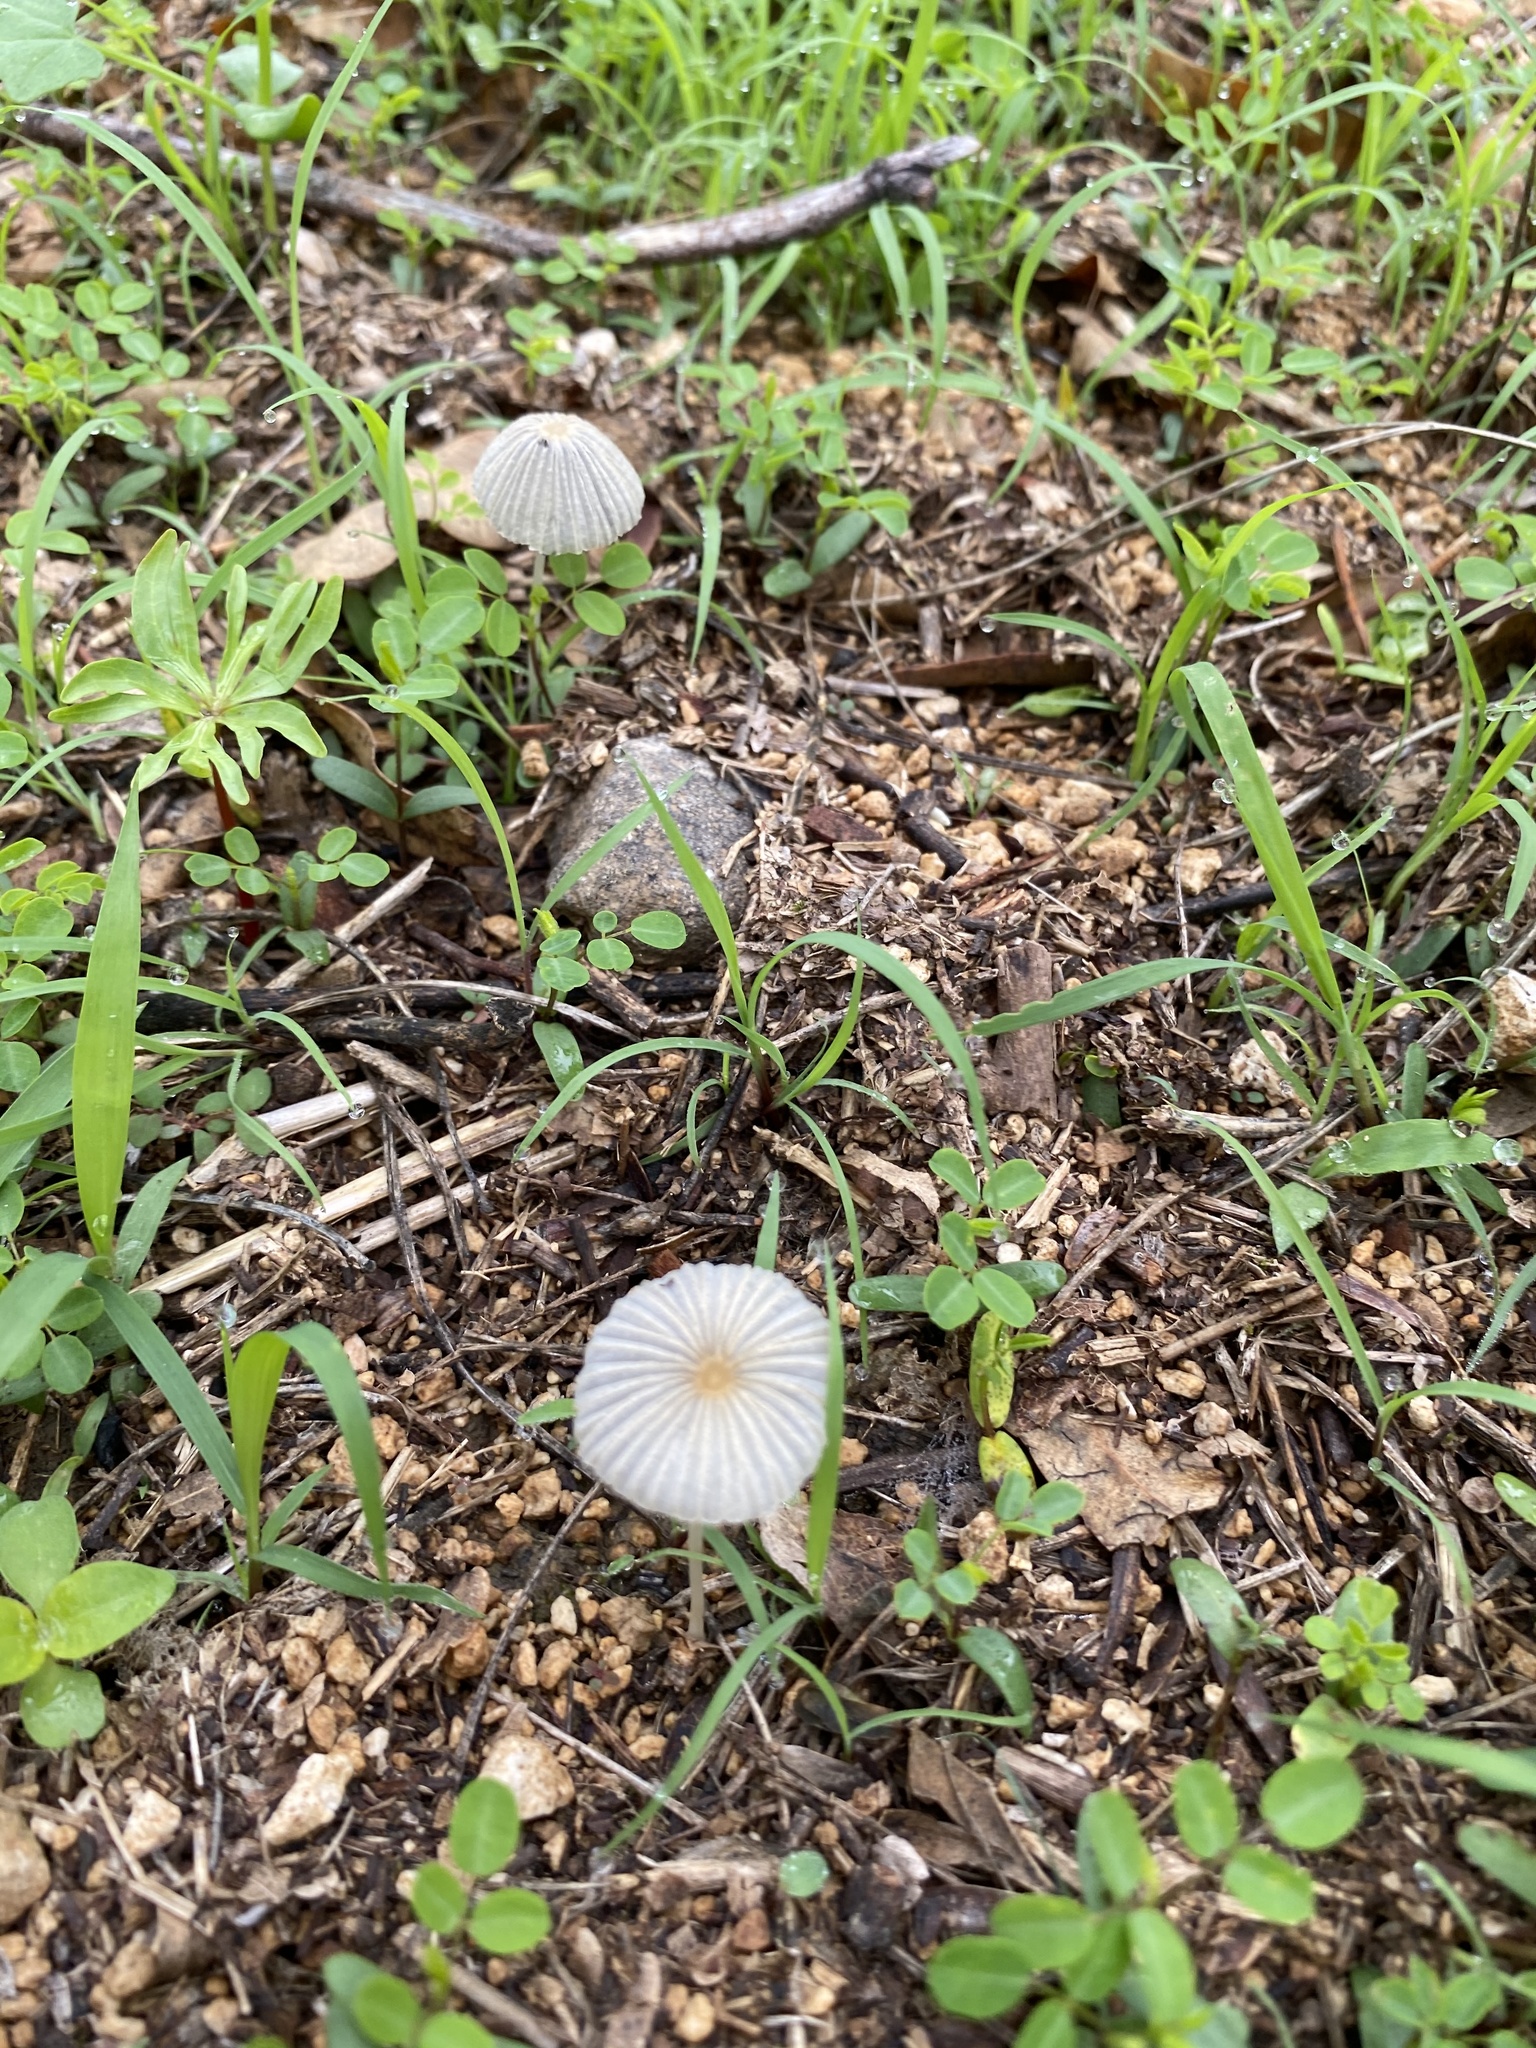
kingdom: Fungi
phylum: Basidiomycota
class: Agaricomycetes
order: Agaricales
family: Psathyrellaceae
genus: Parasola
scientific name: Parasola
